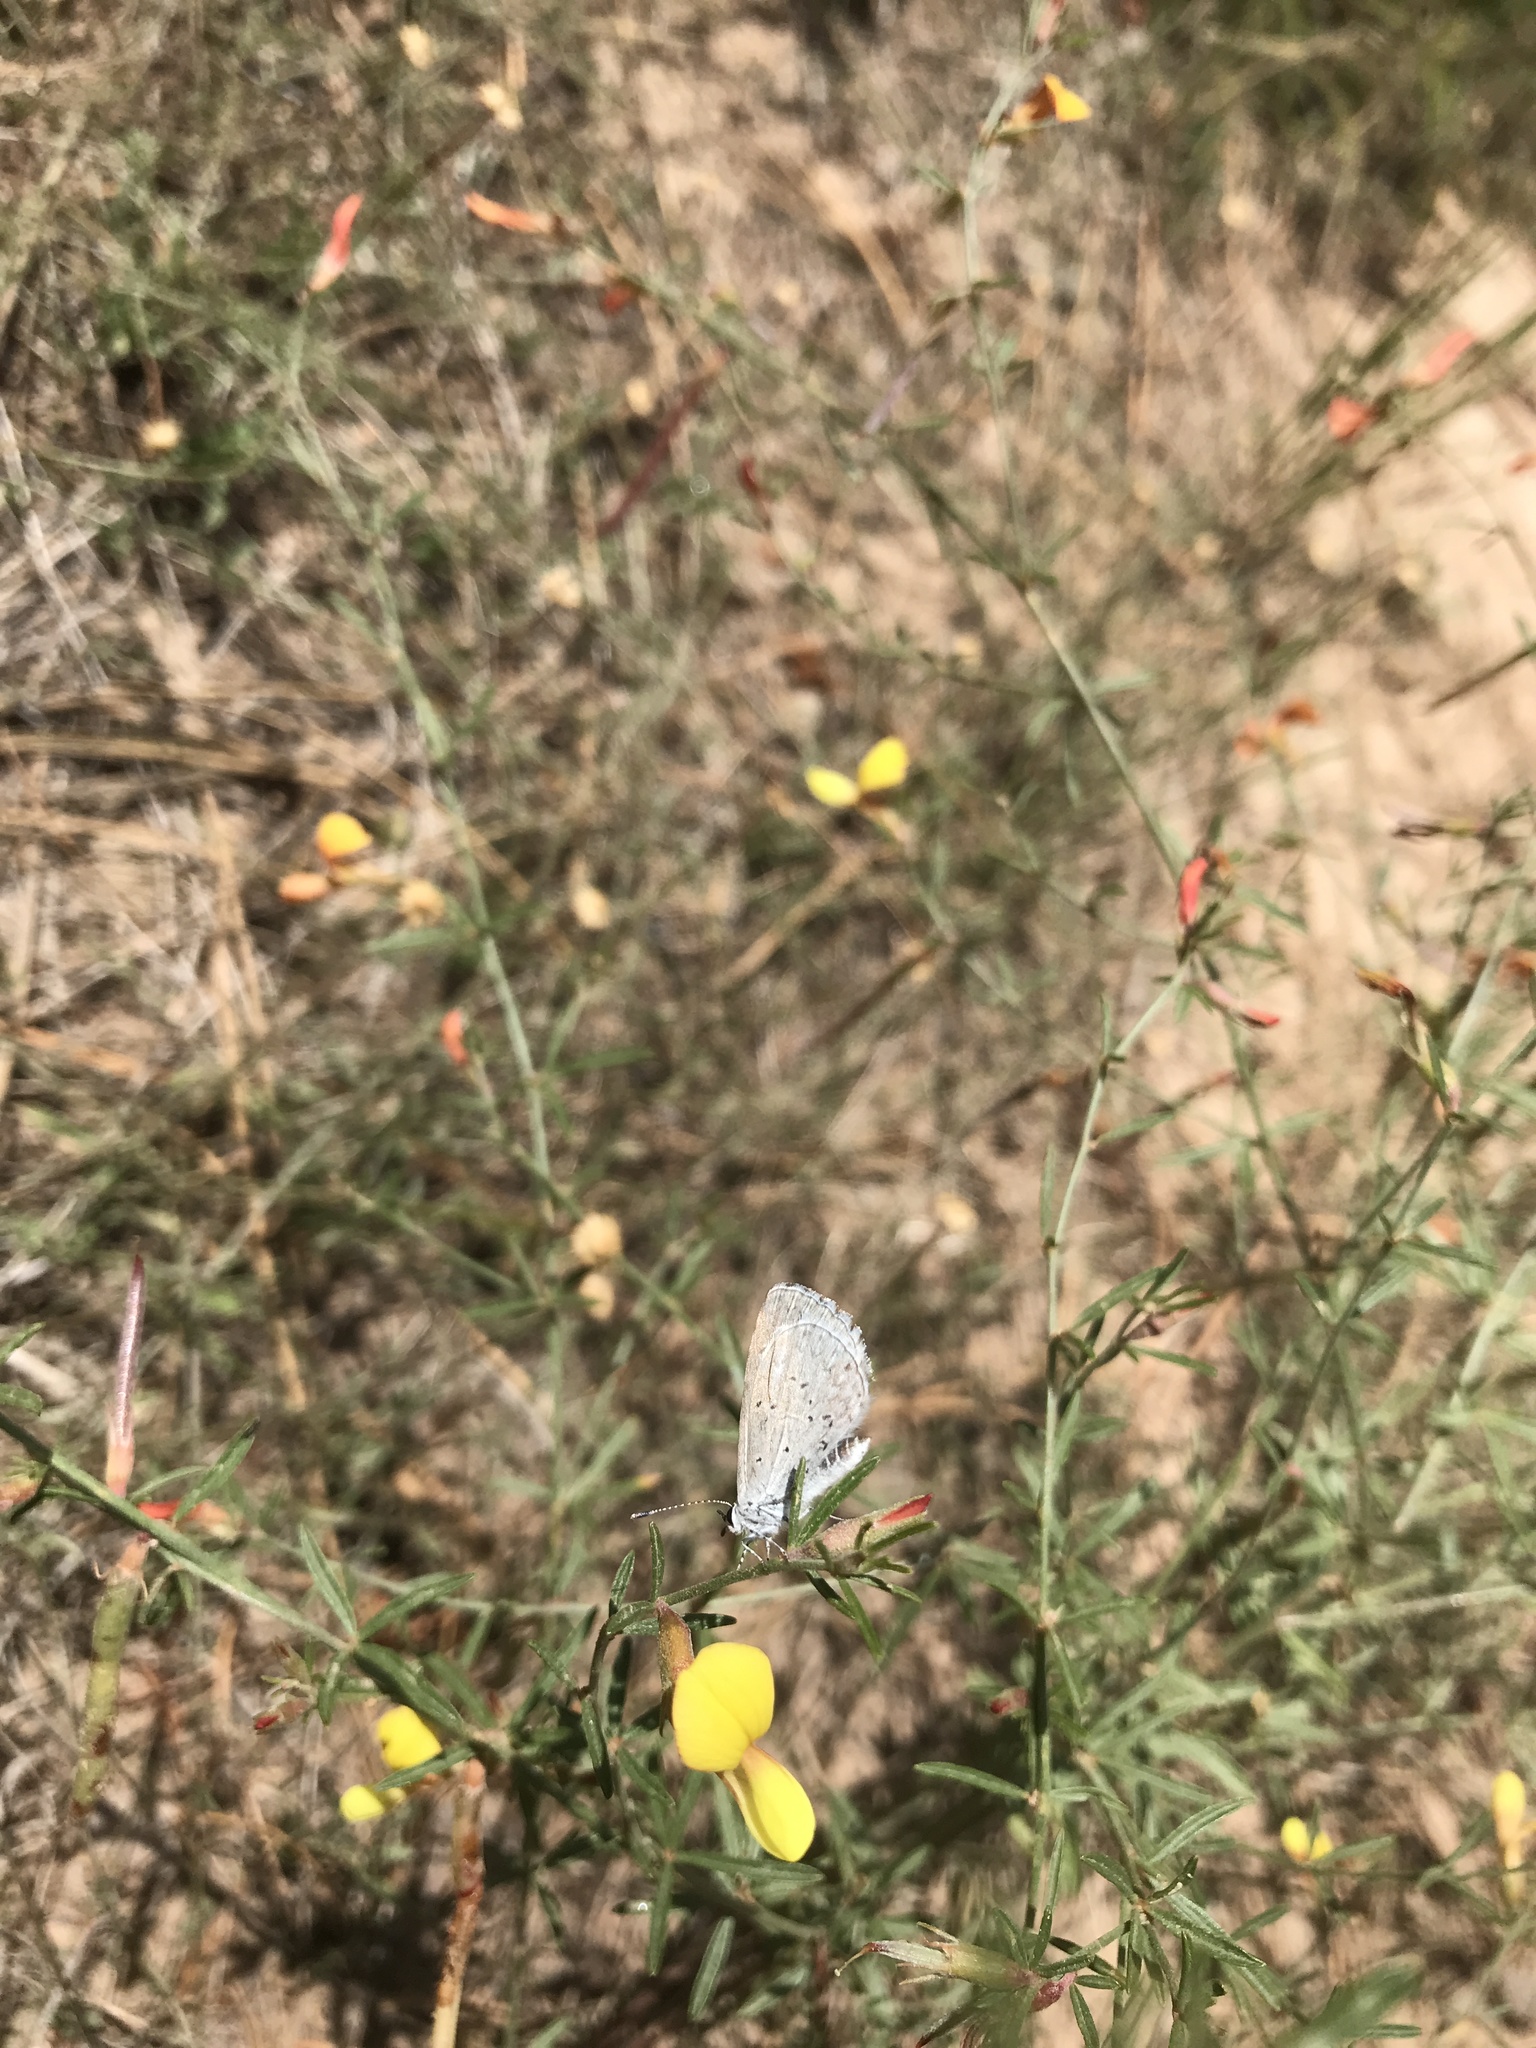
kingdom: Animalia
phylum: Arthropoda
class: Insecta
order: Lepidoptera
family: Lycaenidae
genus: Celastrina
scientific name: Celastrina ladon
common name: Spring azure
